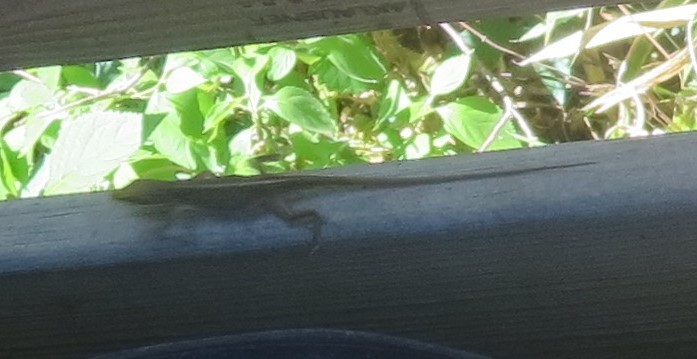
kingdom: Animalia
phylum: Chordata
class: Squamata
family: Dactyloidae
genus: Anolis
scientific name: Anolis carolinensis
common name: Green anole
